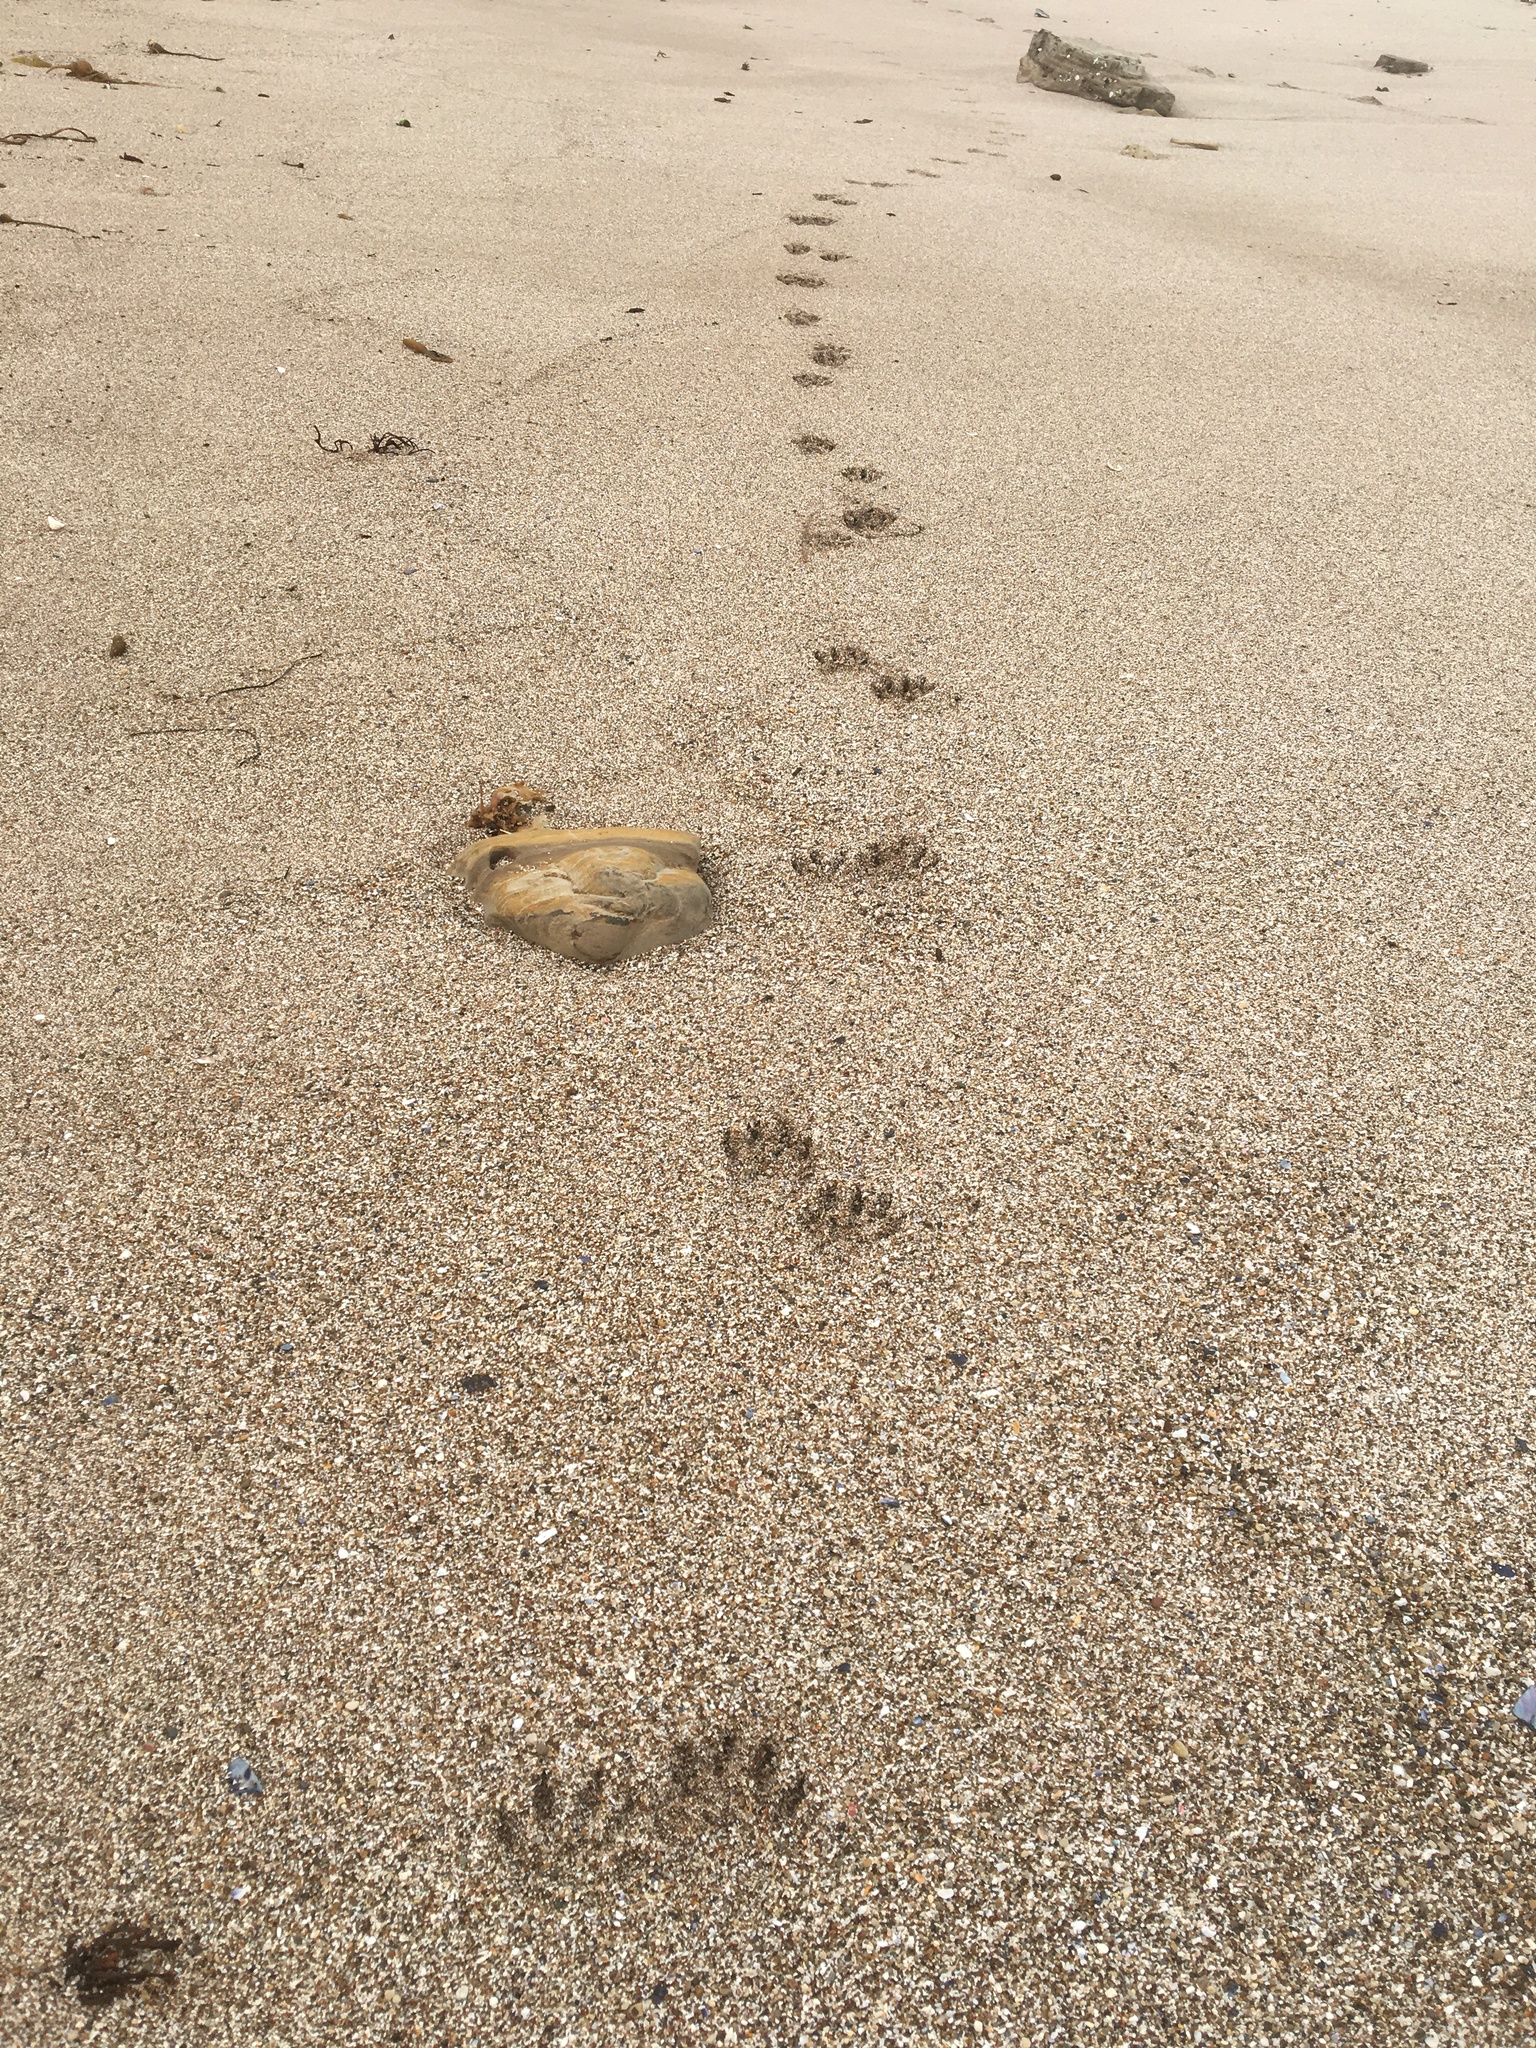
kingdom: Animalia
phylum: Chordata
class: Mammalia
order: Carnivora
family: Procyonidae
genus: Procyon
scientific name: Procyon lotor
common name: Raccoon
